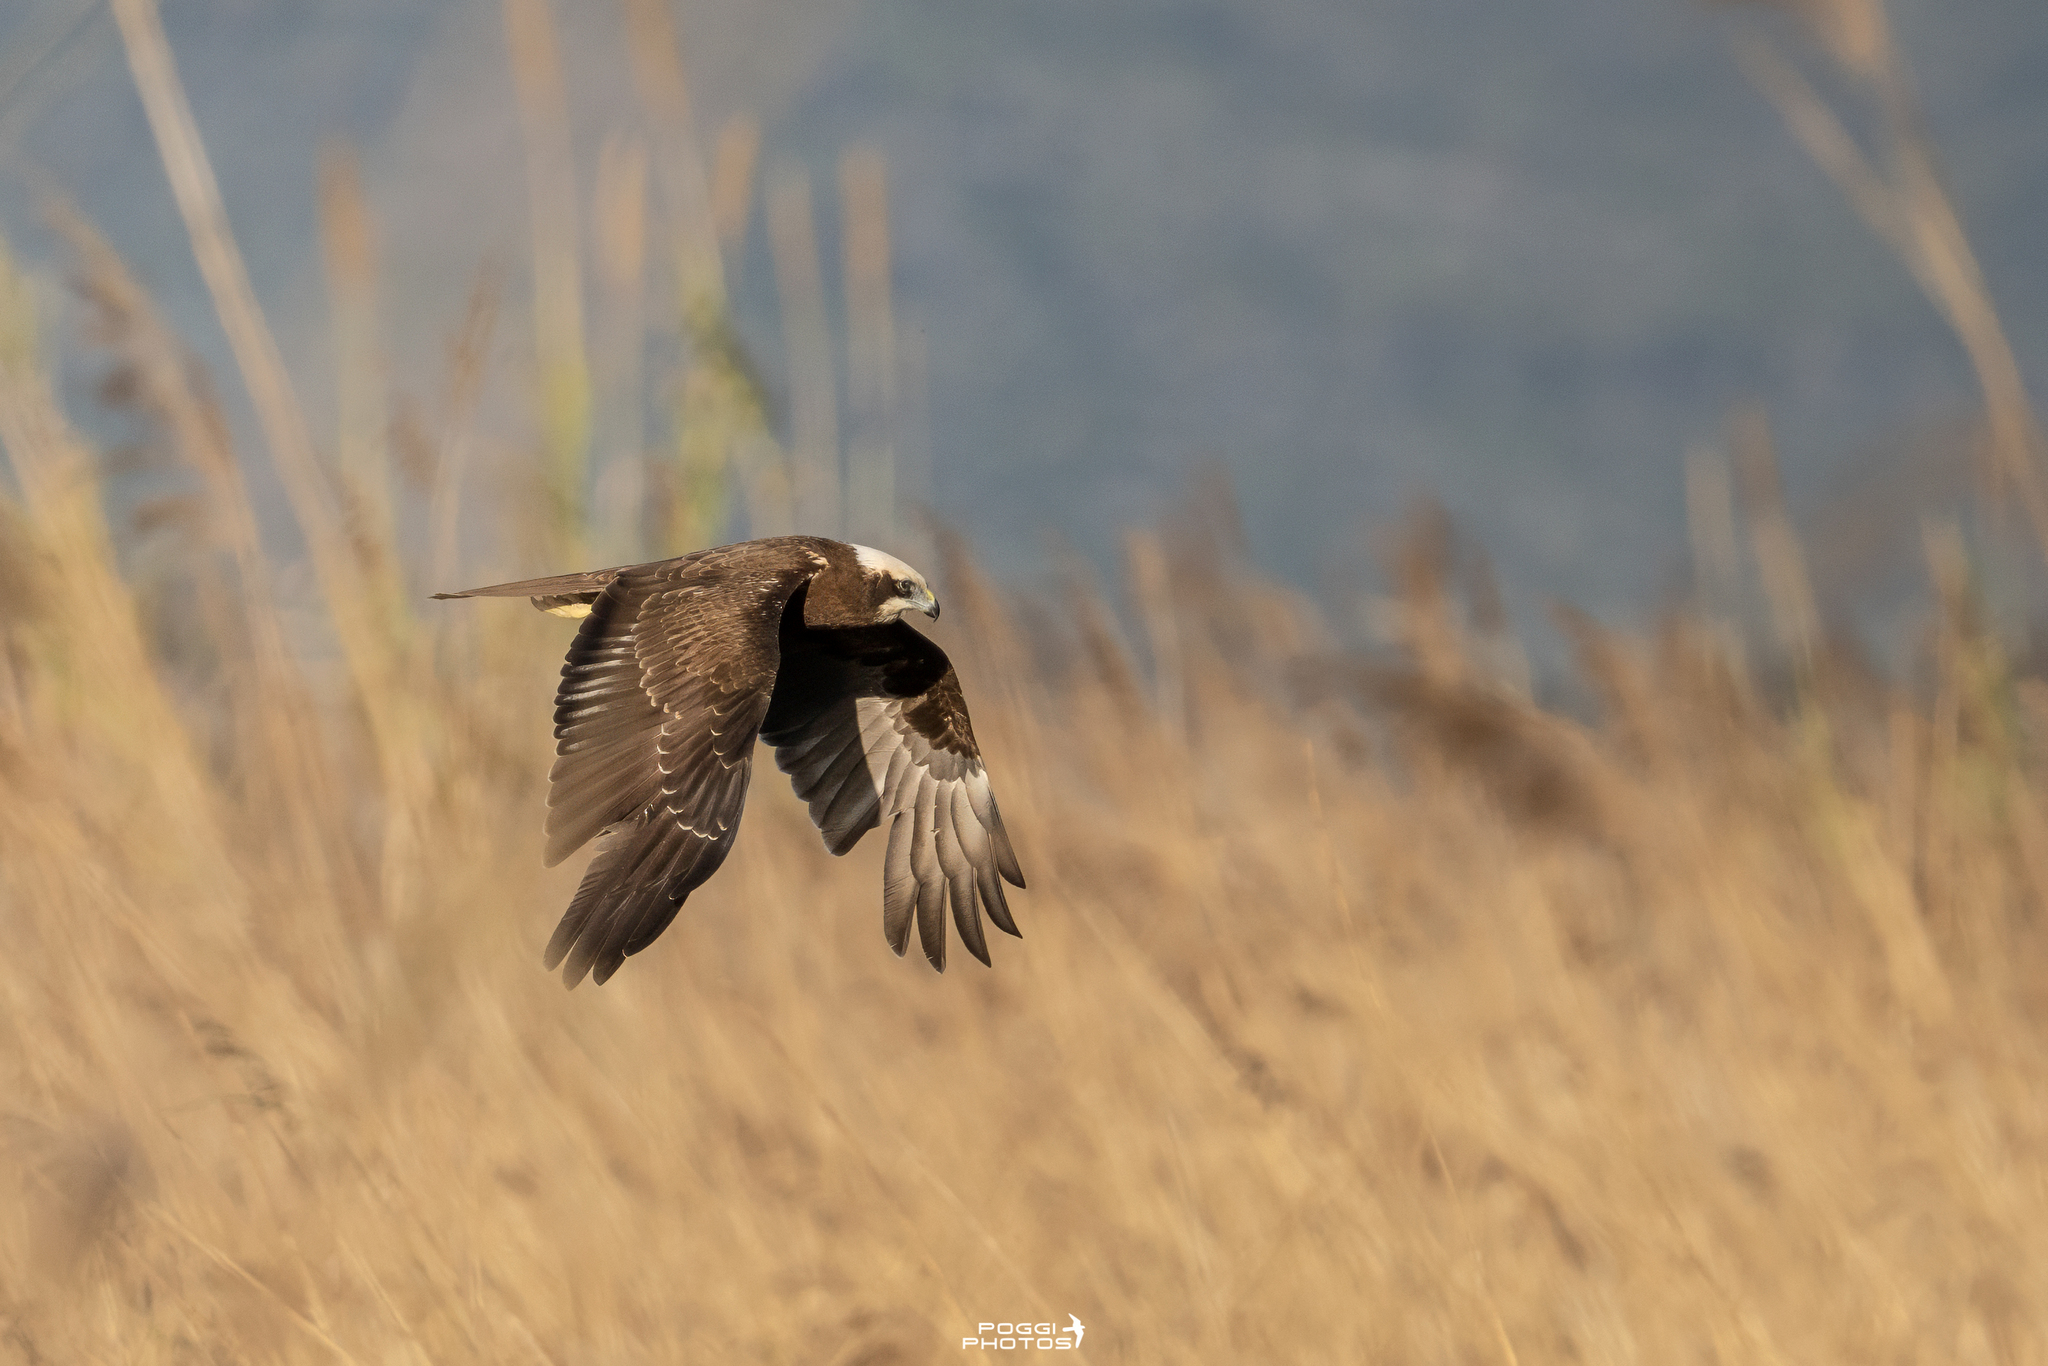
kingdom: Animalia
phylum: Chordata
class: Aves
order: Accipitriformes
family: Accipitridae
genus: Circus
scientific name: Circus aeruginosus
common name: Western marsh harrier
